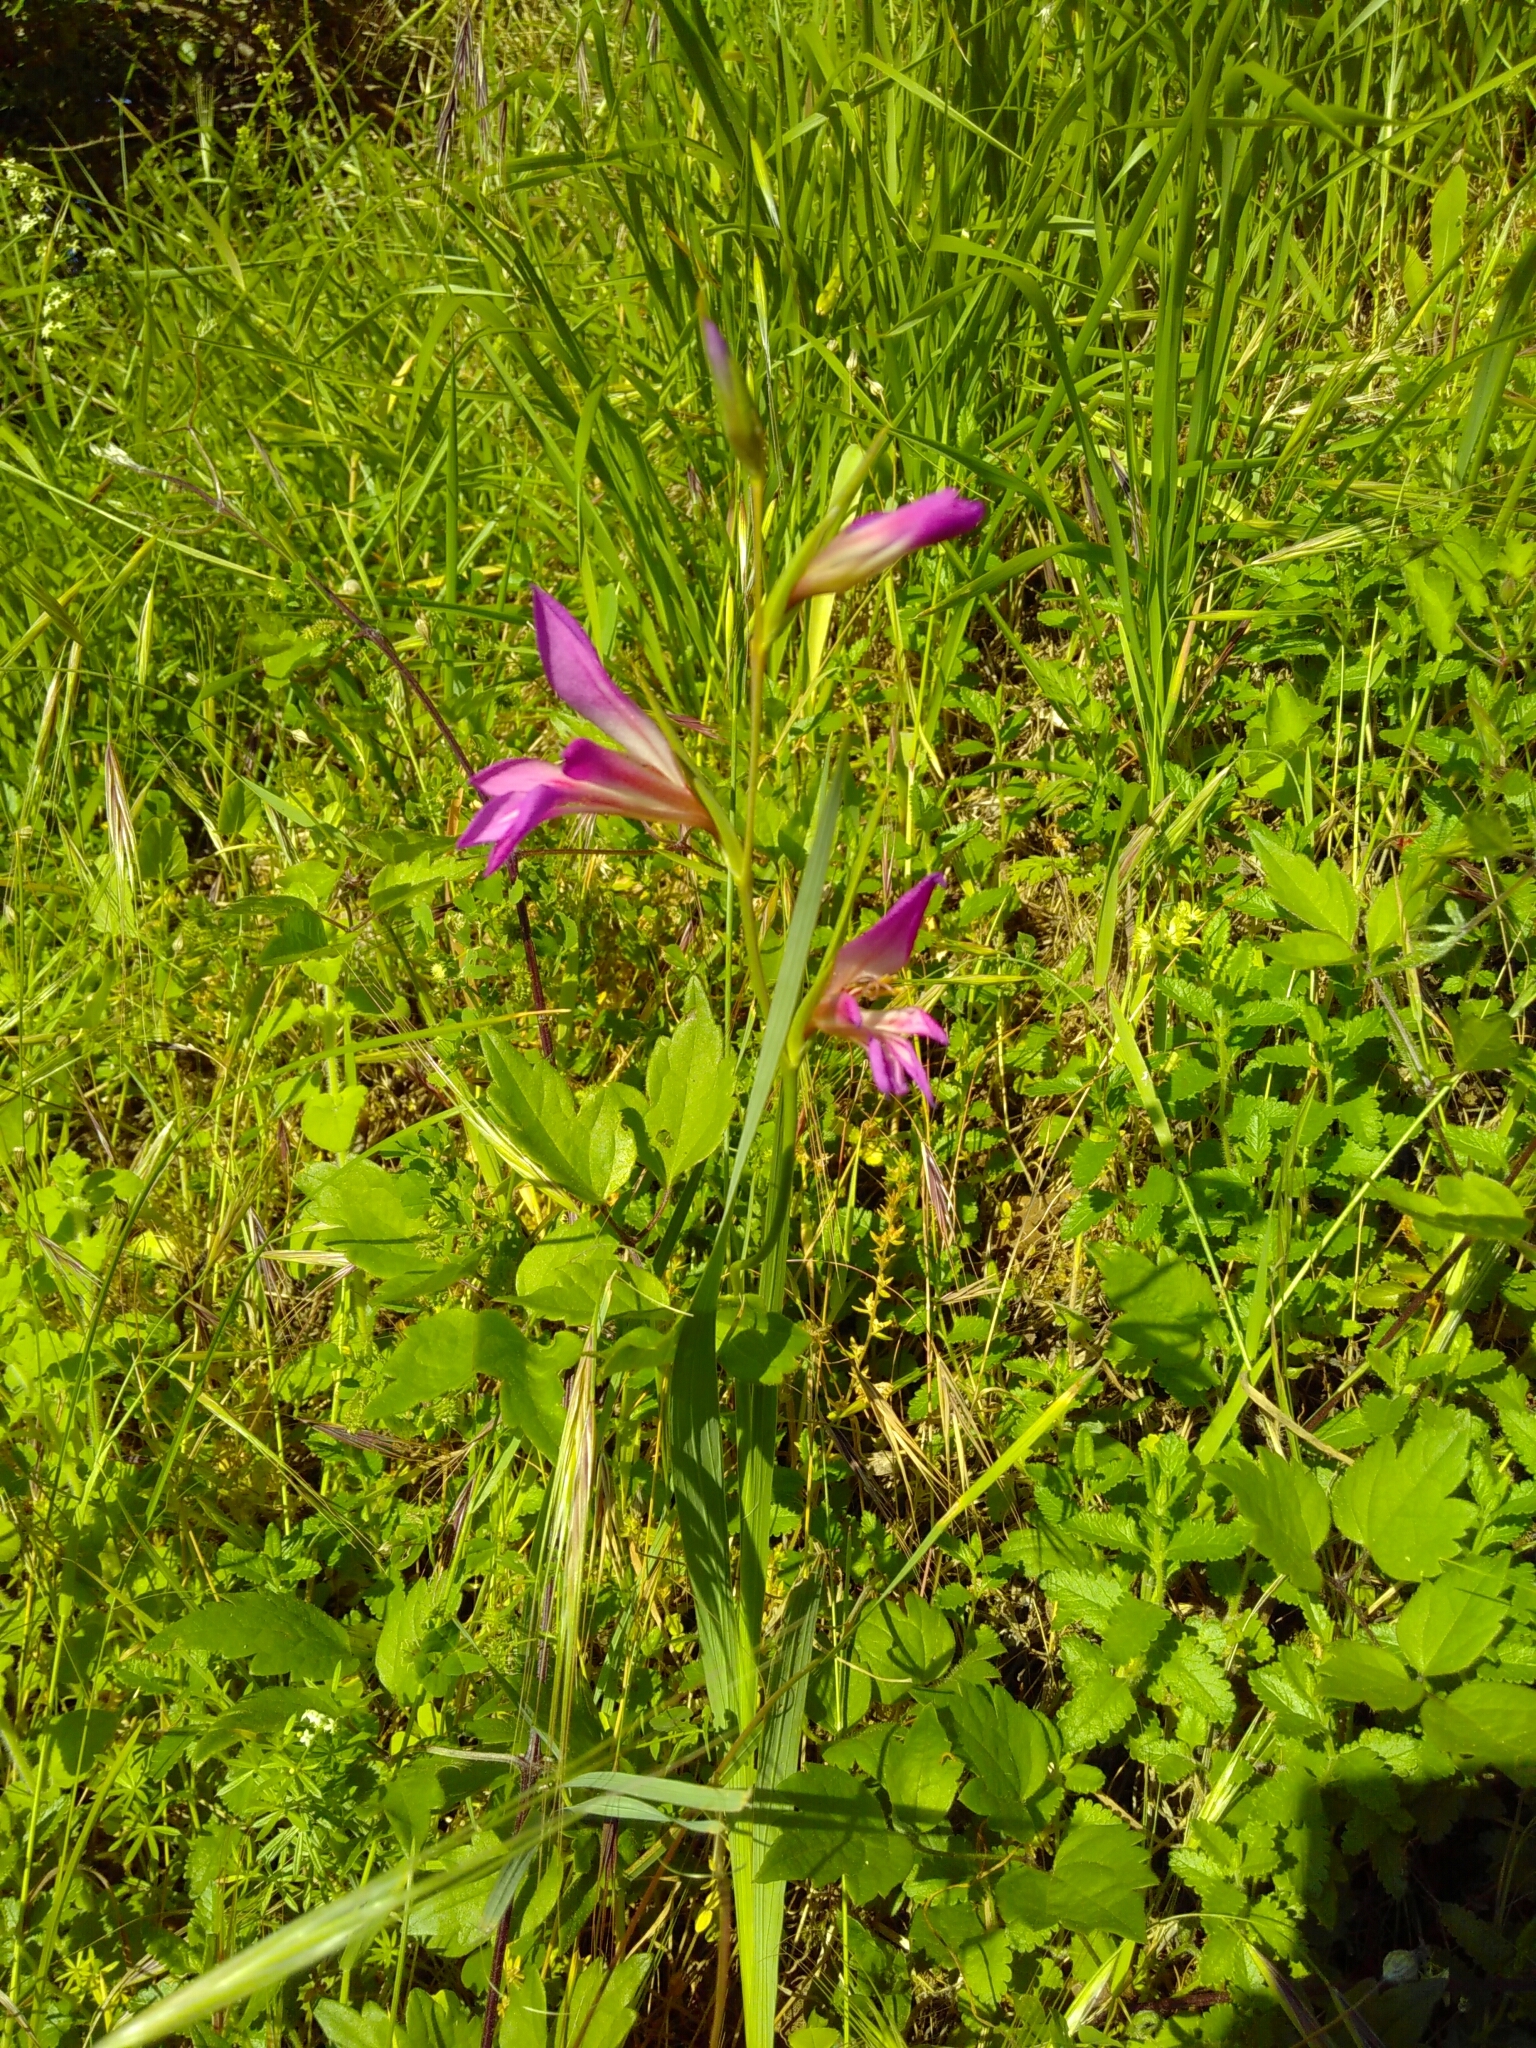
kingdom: Plantae
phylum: Tracheophyta
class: Liliopsida
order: Asparagales
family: Iridaceae
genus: Gladiolus
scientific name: Gladiolus italicus
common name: Field gladiolus
